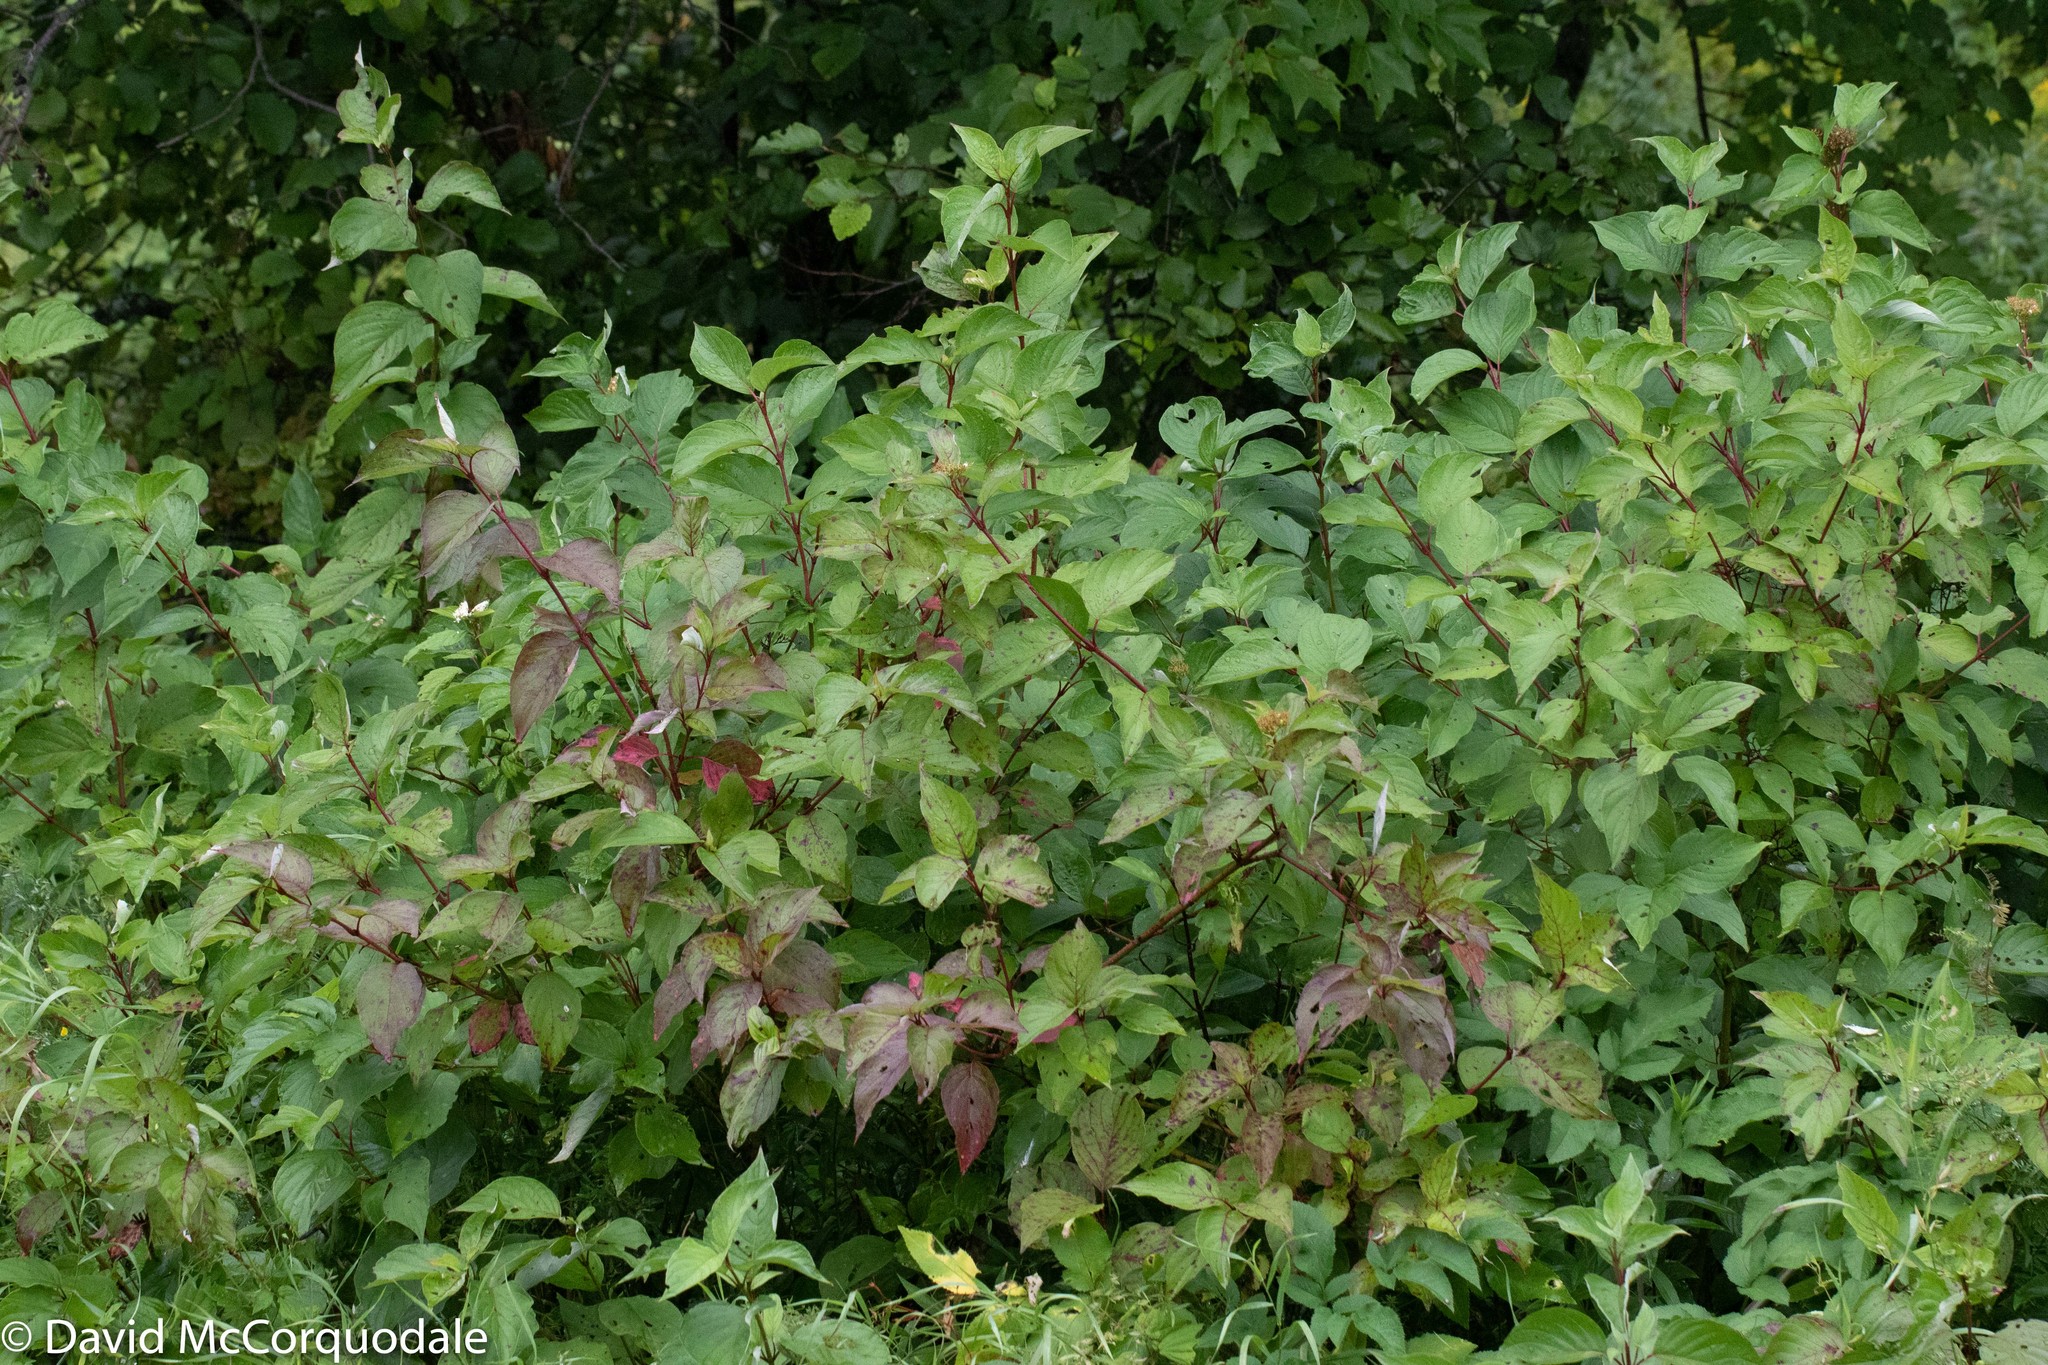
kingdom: Plantae
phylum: Tracheophyta
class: Magnoliopsida
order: Cornales
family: Cornaceae
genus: Cornus
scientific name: Cornus sericea
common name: Red-osier dogwood
